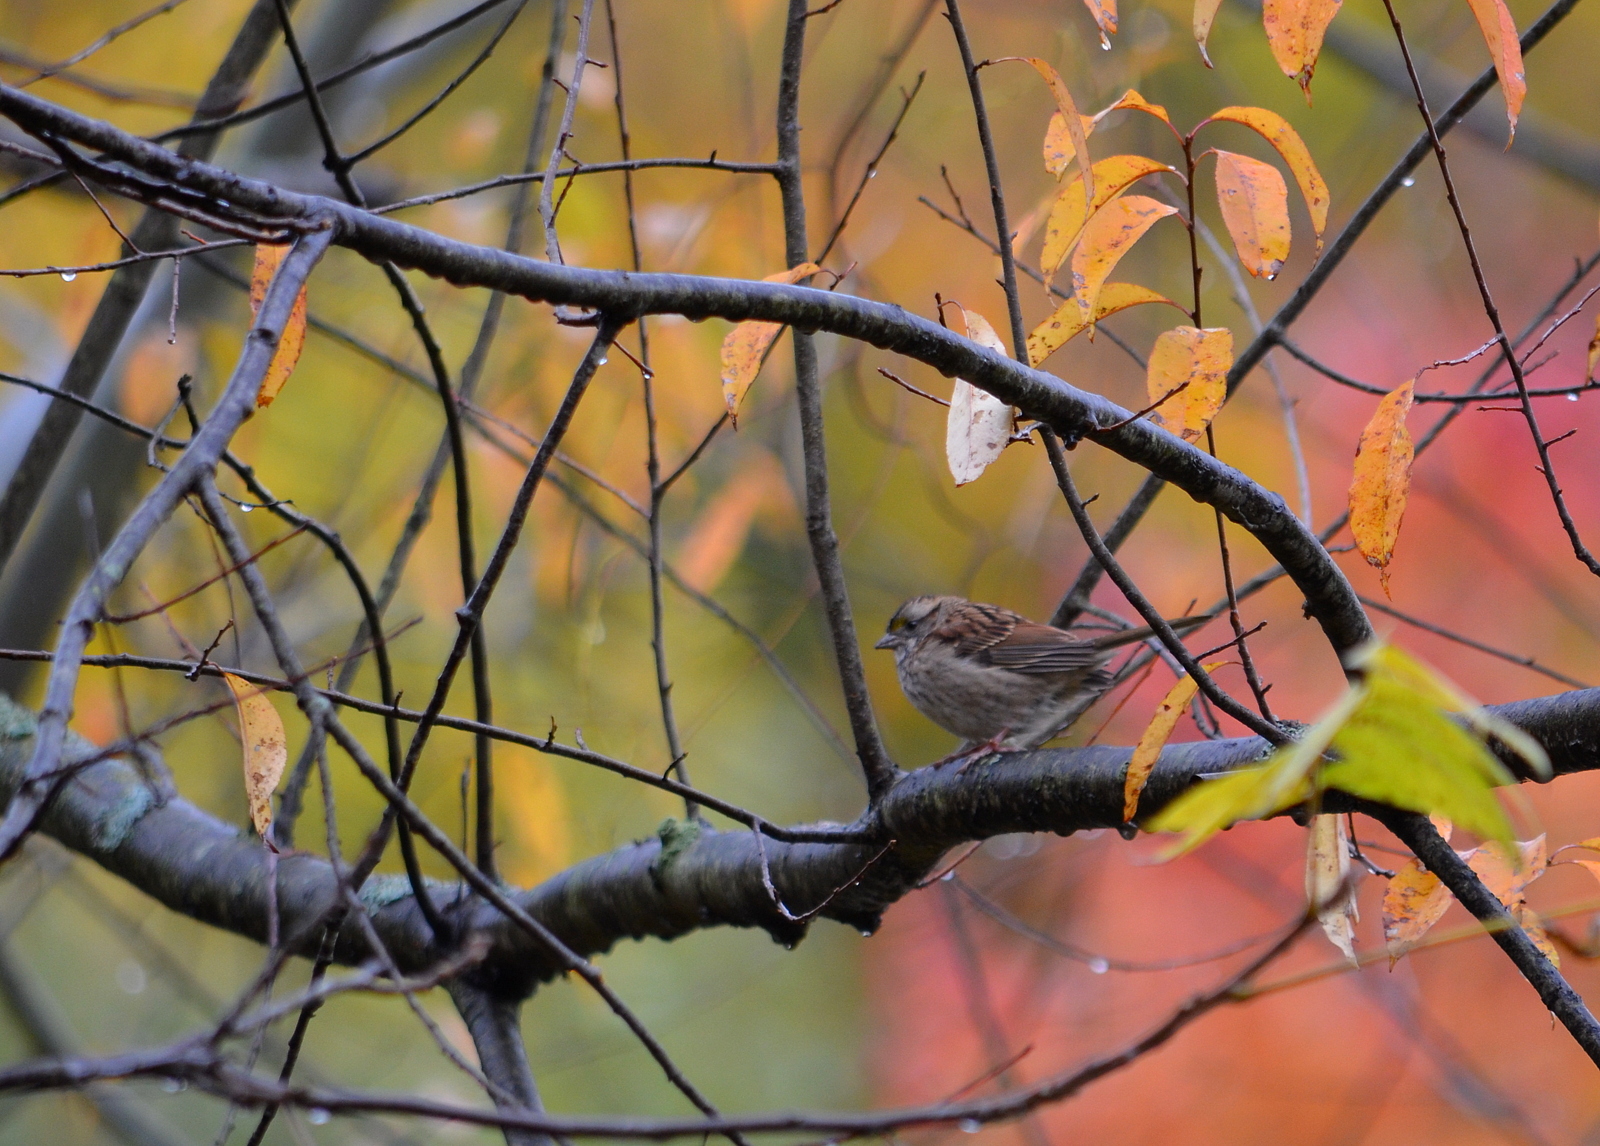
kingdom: Animalia
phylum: Chordata
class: Aves
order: Passeriformes
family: Passerellidae
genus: Zonotrichia
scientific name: Zonotrichia albicollis
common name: White-throated sparrow
